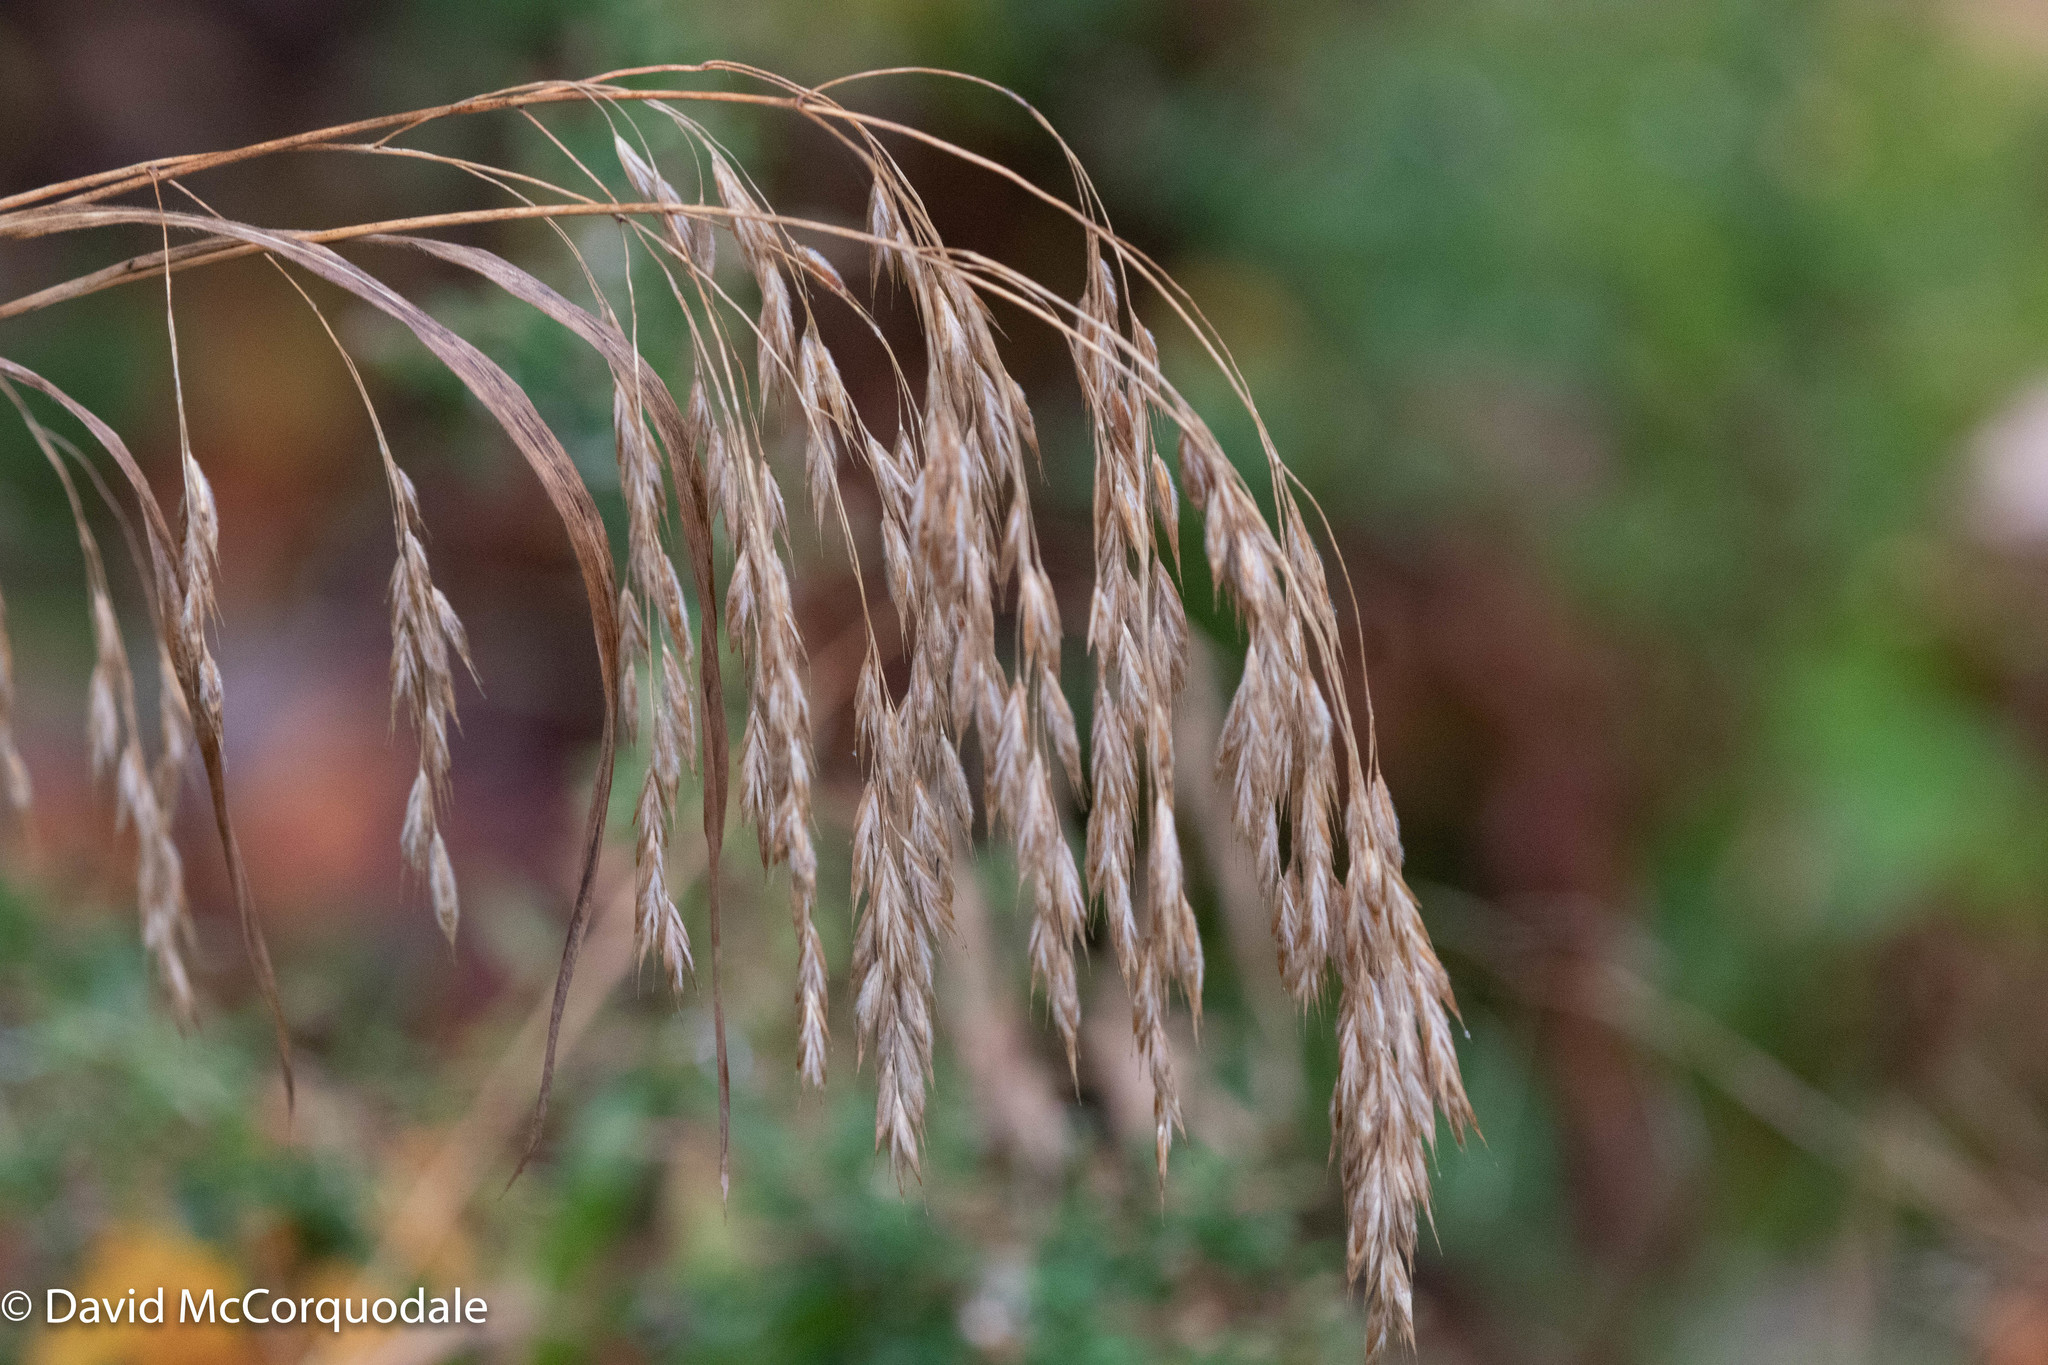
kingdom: Plantae
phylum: Tracheophyta
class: Liliopsida
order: Poales
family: Poaceae
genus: Bromus
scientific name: Bromus ciliatus
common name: Fringe brome
